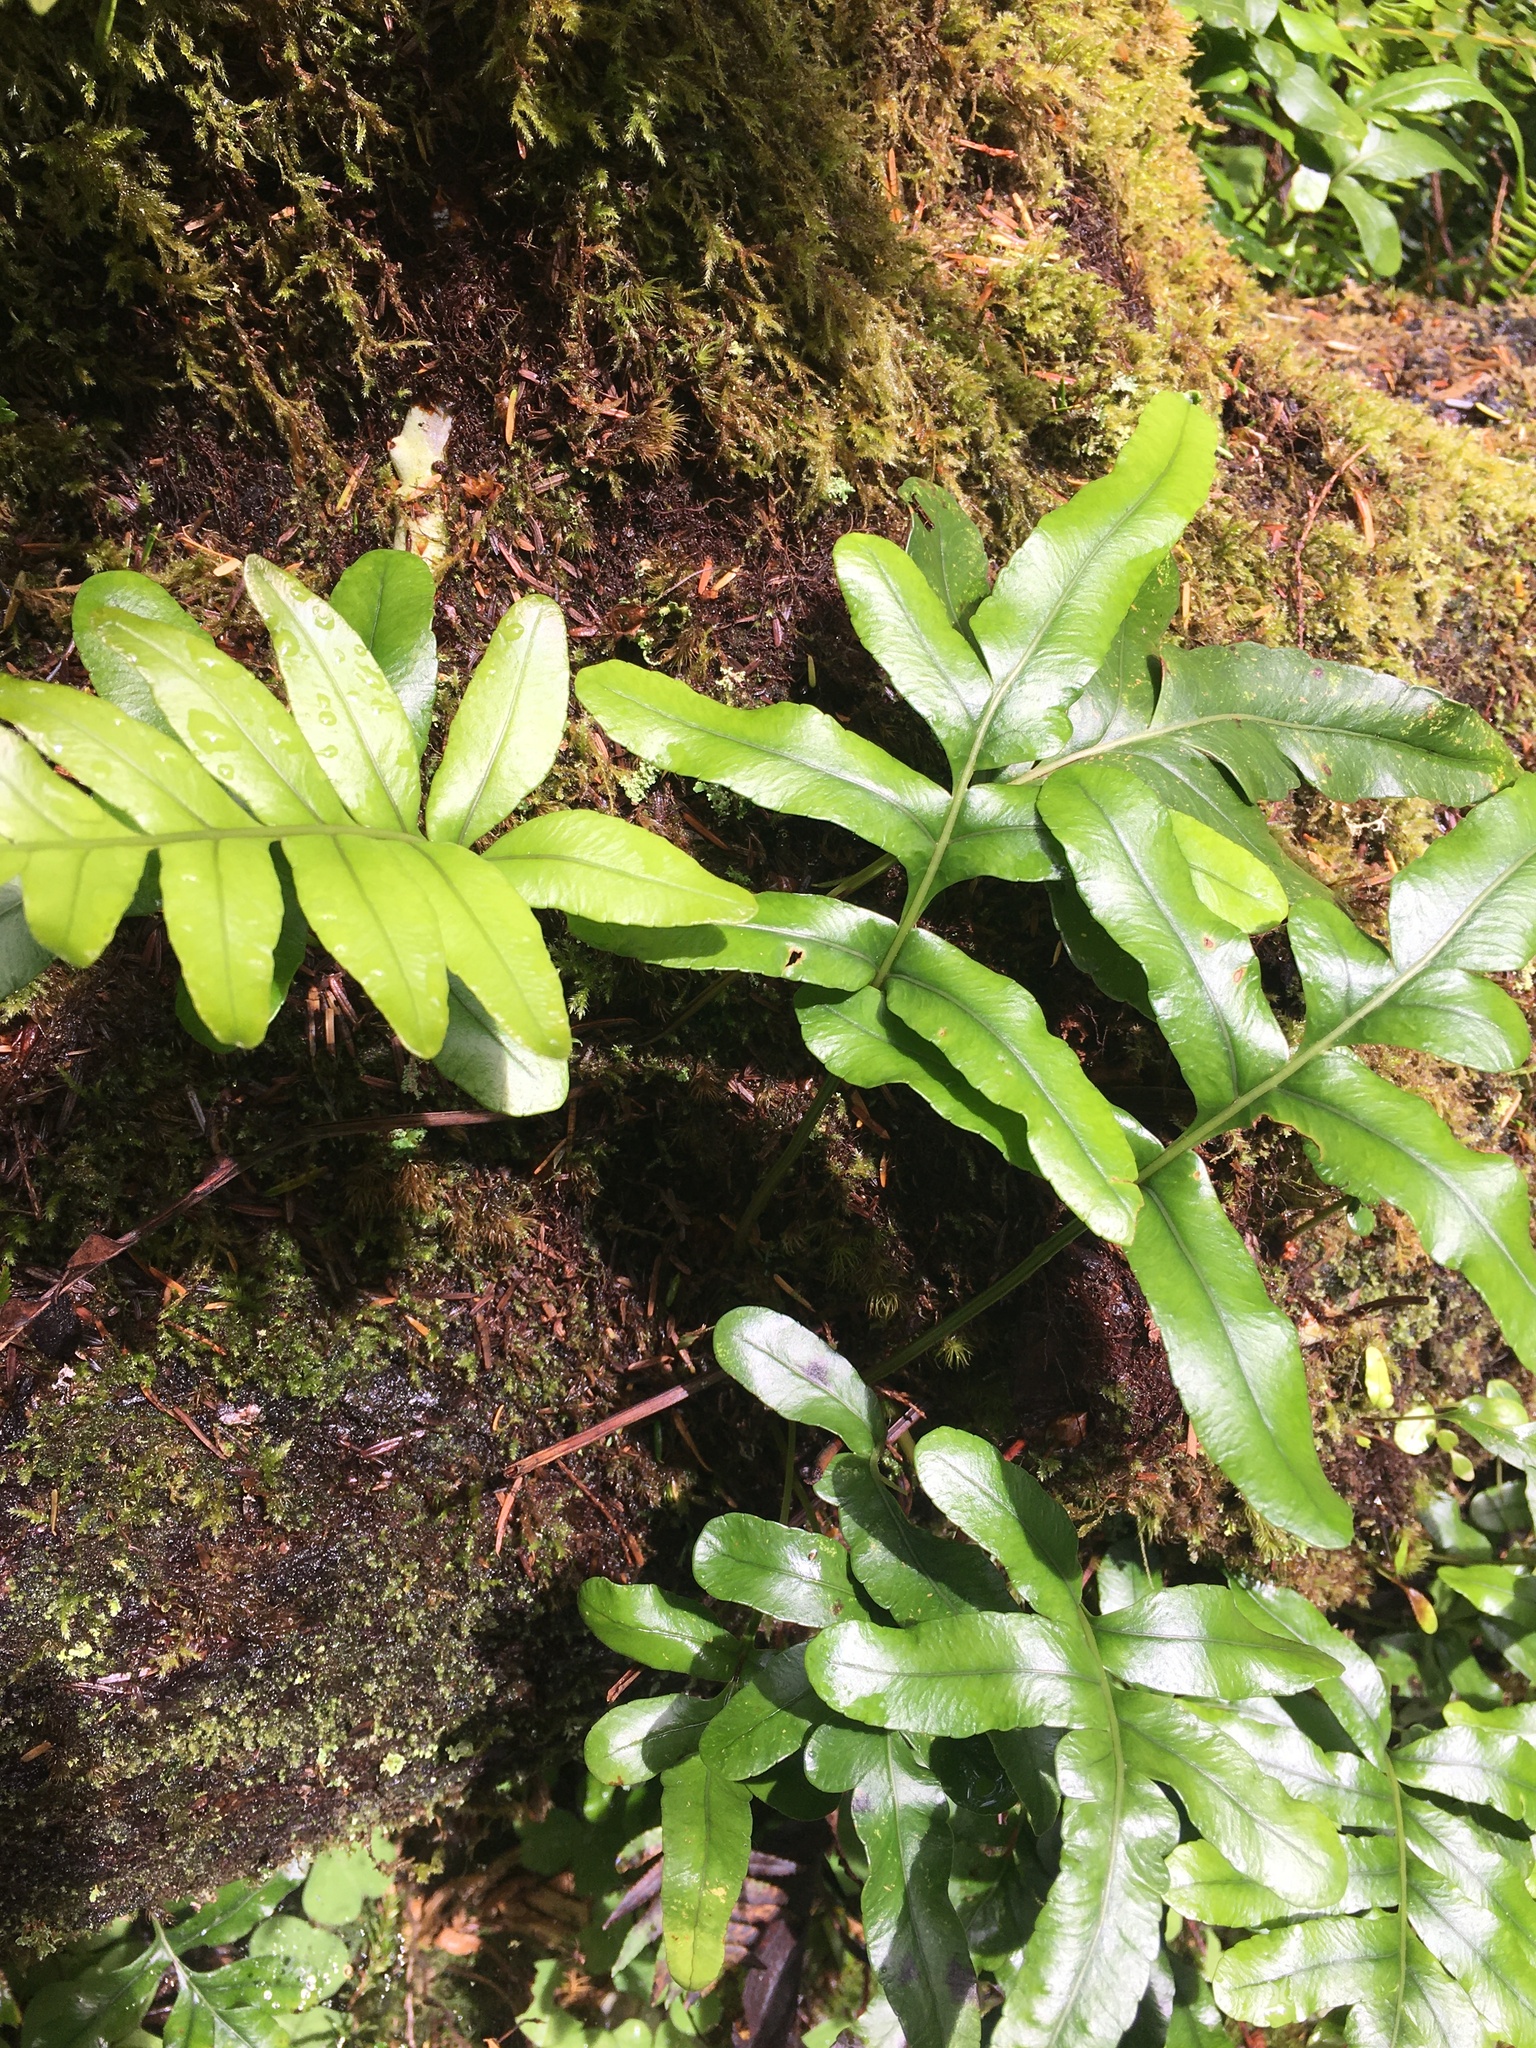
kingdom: Plantae
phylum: Tracheophyta
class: Polypodiopsida
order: Polypodiales
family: Polypodiaceae
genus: Polypodium
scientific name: Polypodium scouleri
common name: Scouler's polypody
